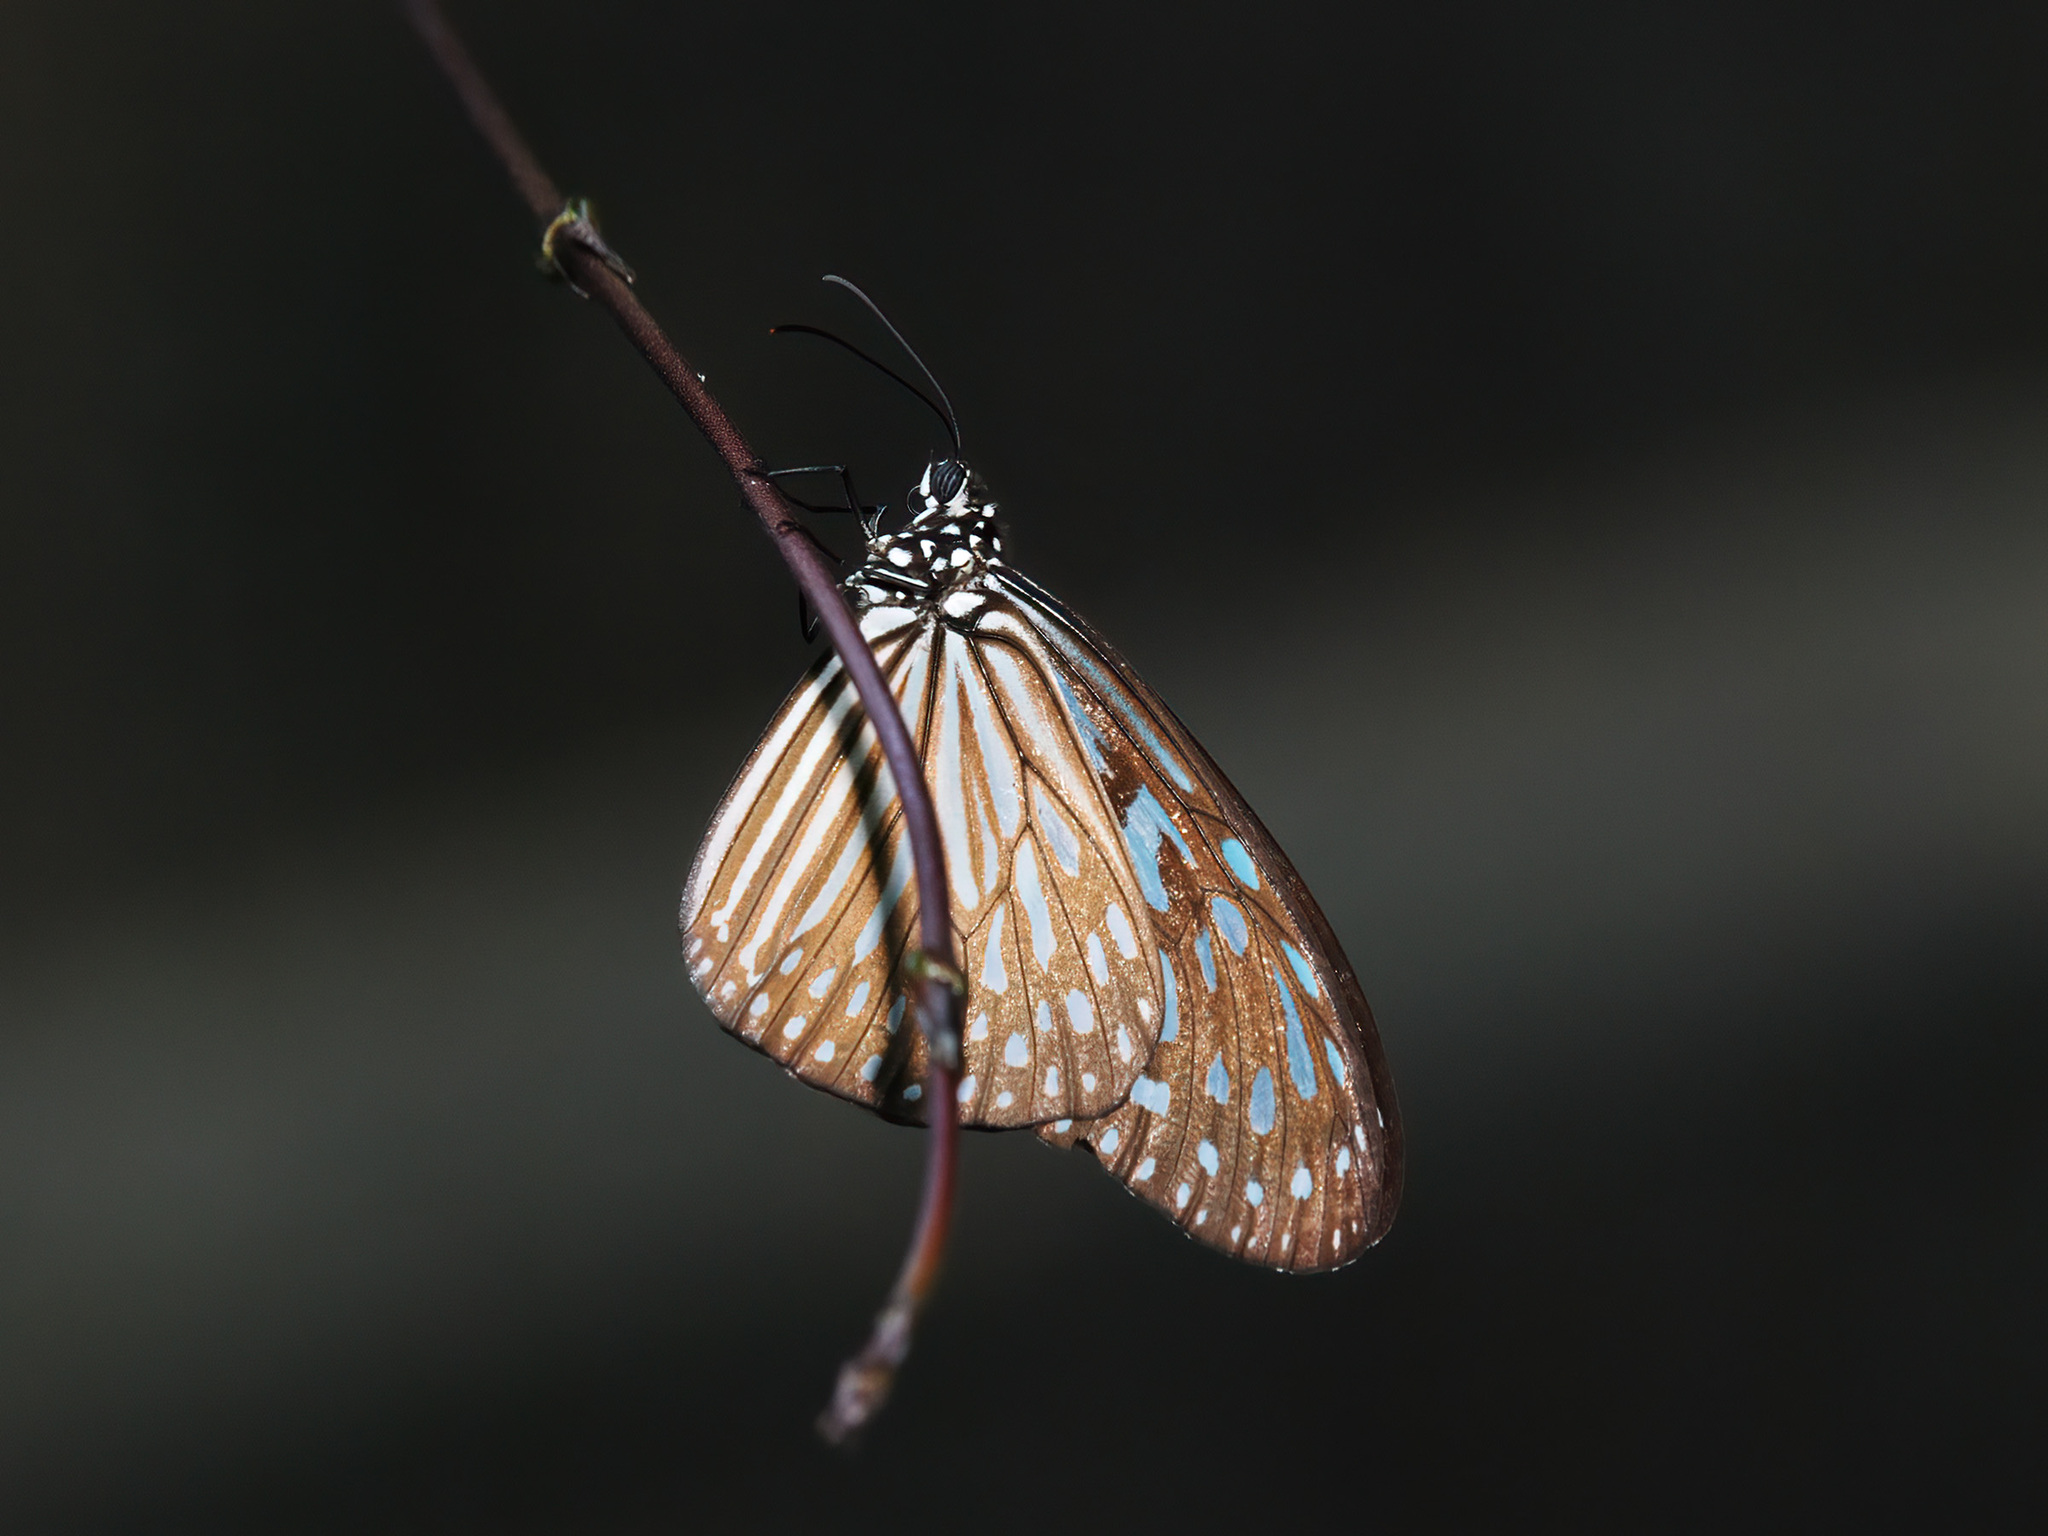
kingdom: Animalia
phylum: Arthropoda
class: Insecta
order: Lepidoptera
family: Nymphalidae
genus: Ideopsis
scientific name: Ideopsis vulgaris
